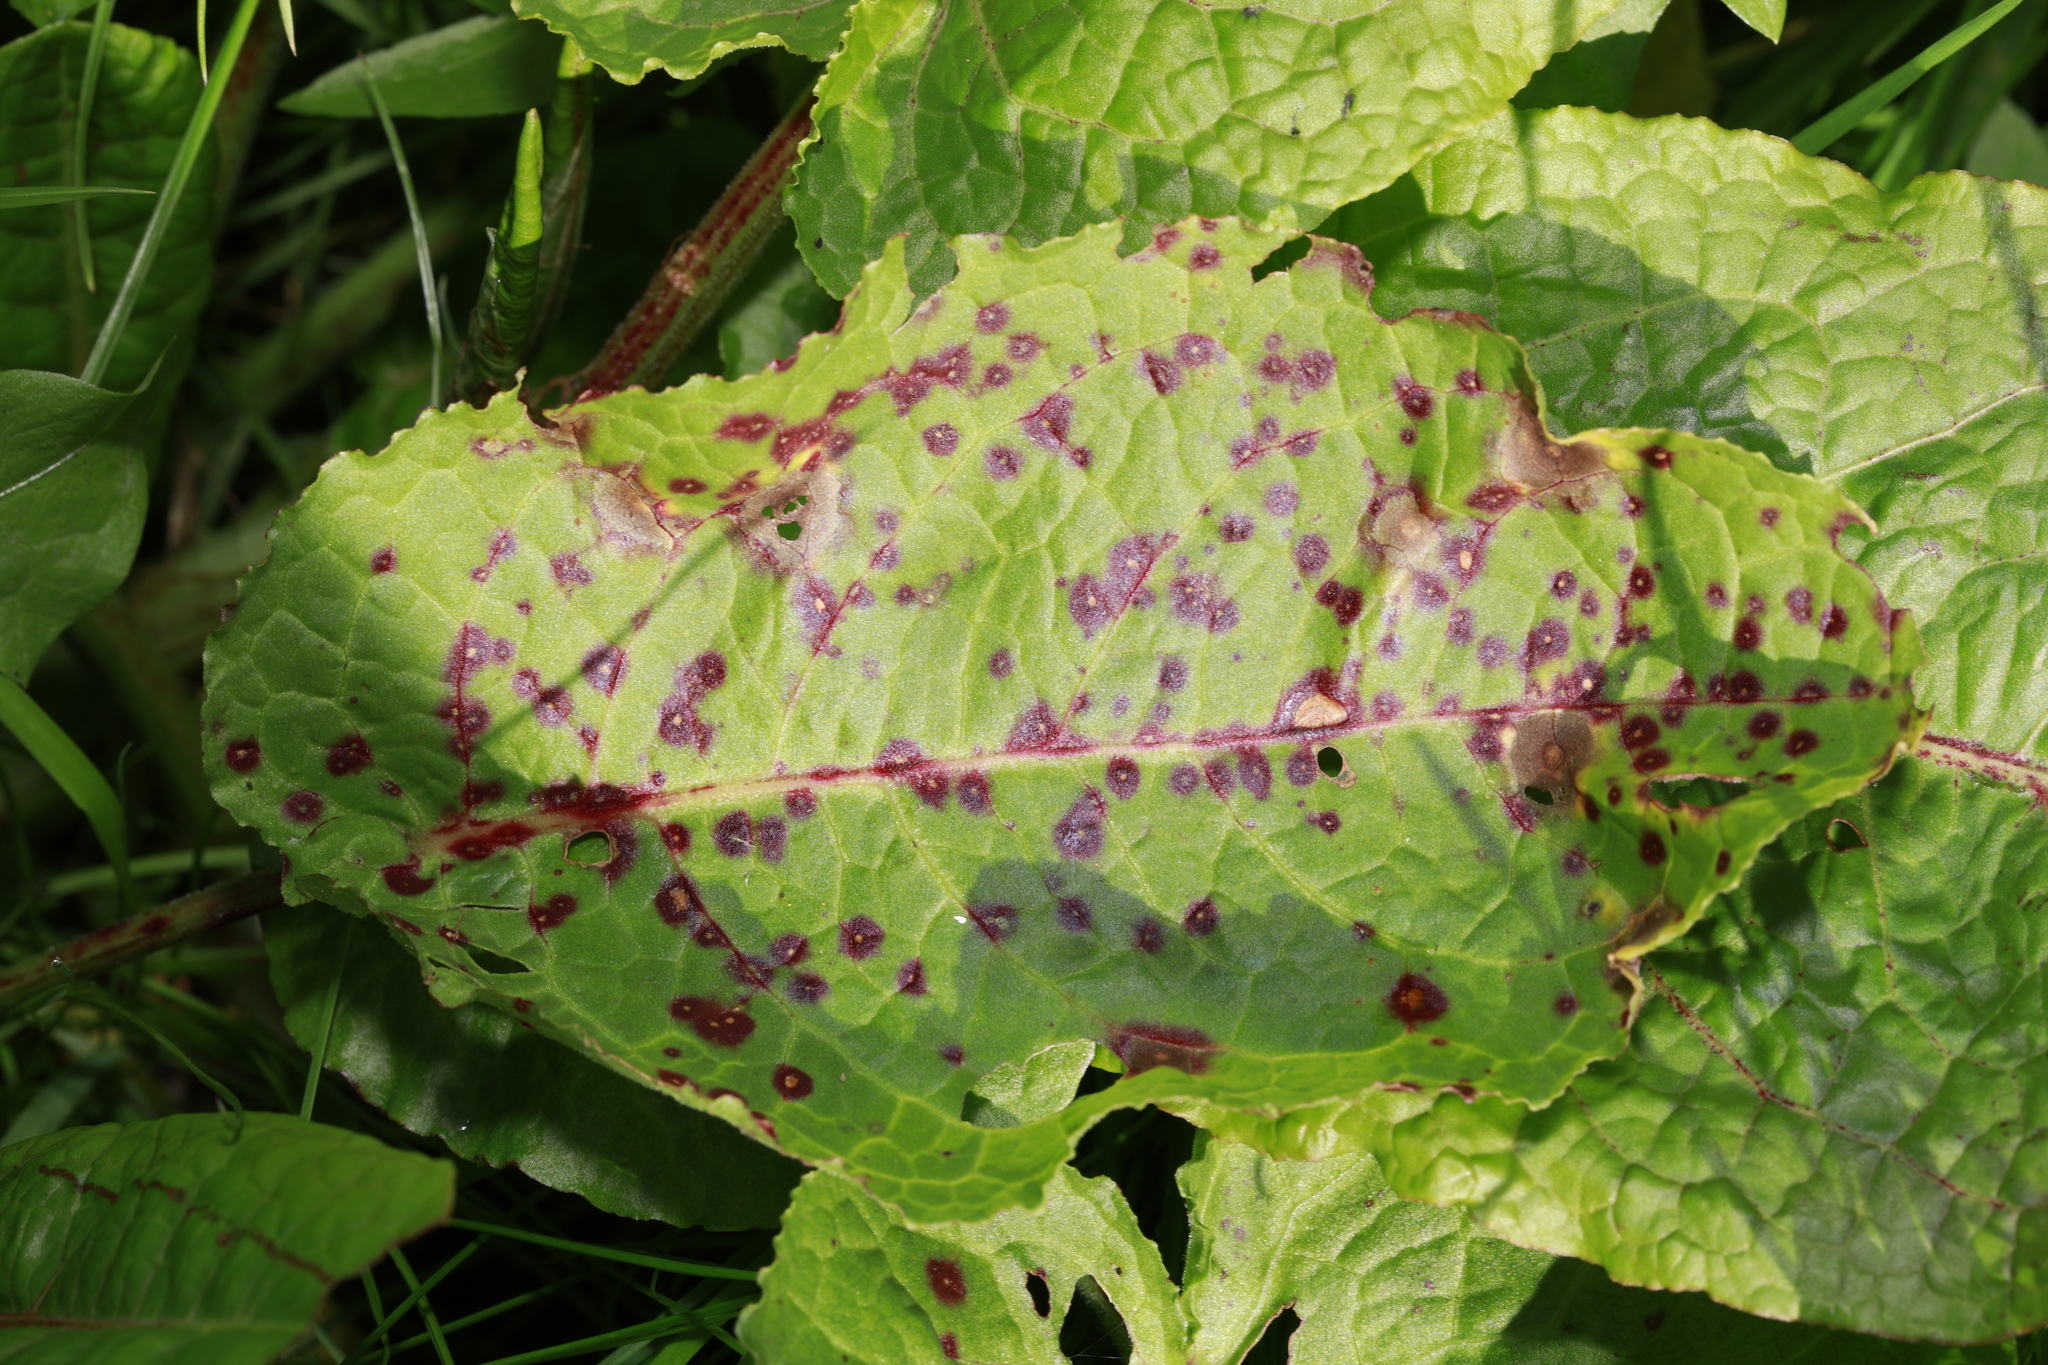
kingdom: Fungi
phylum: Ascomycota
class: Dothideomycetes
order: Mycosphaerellales
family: Mycosphaerellaceae
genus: Ramularia
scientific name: Ramularia rubella
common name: Red dock spot
